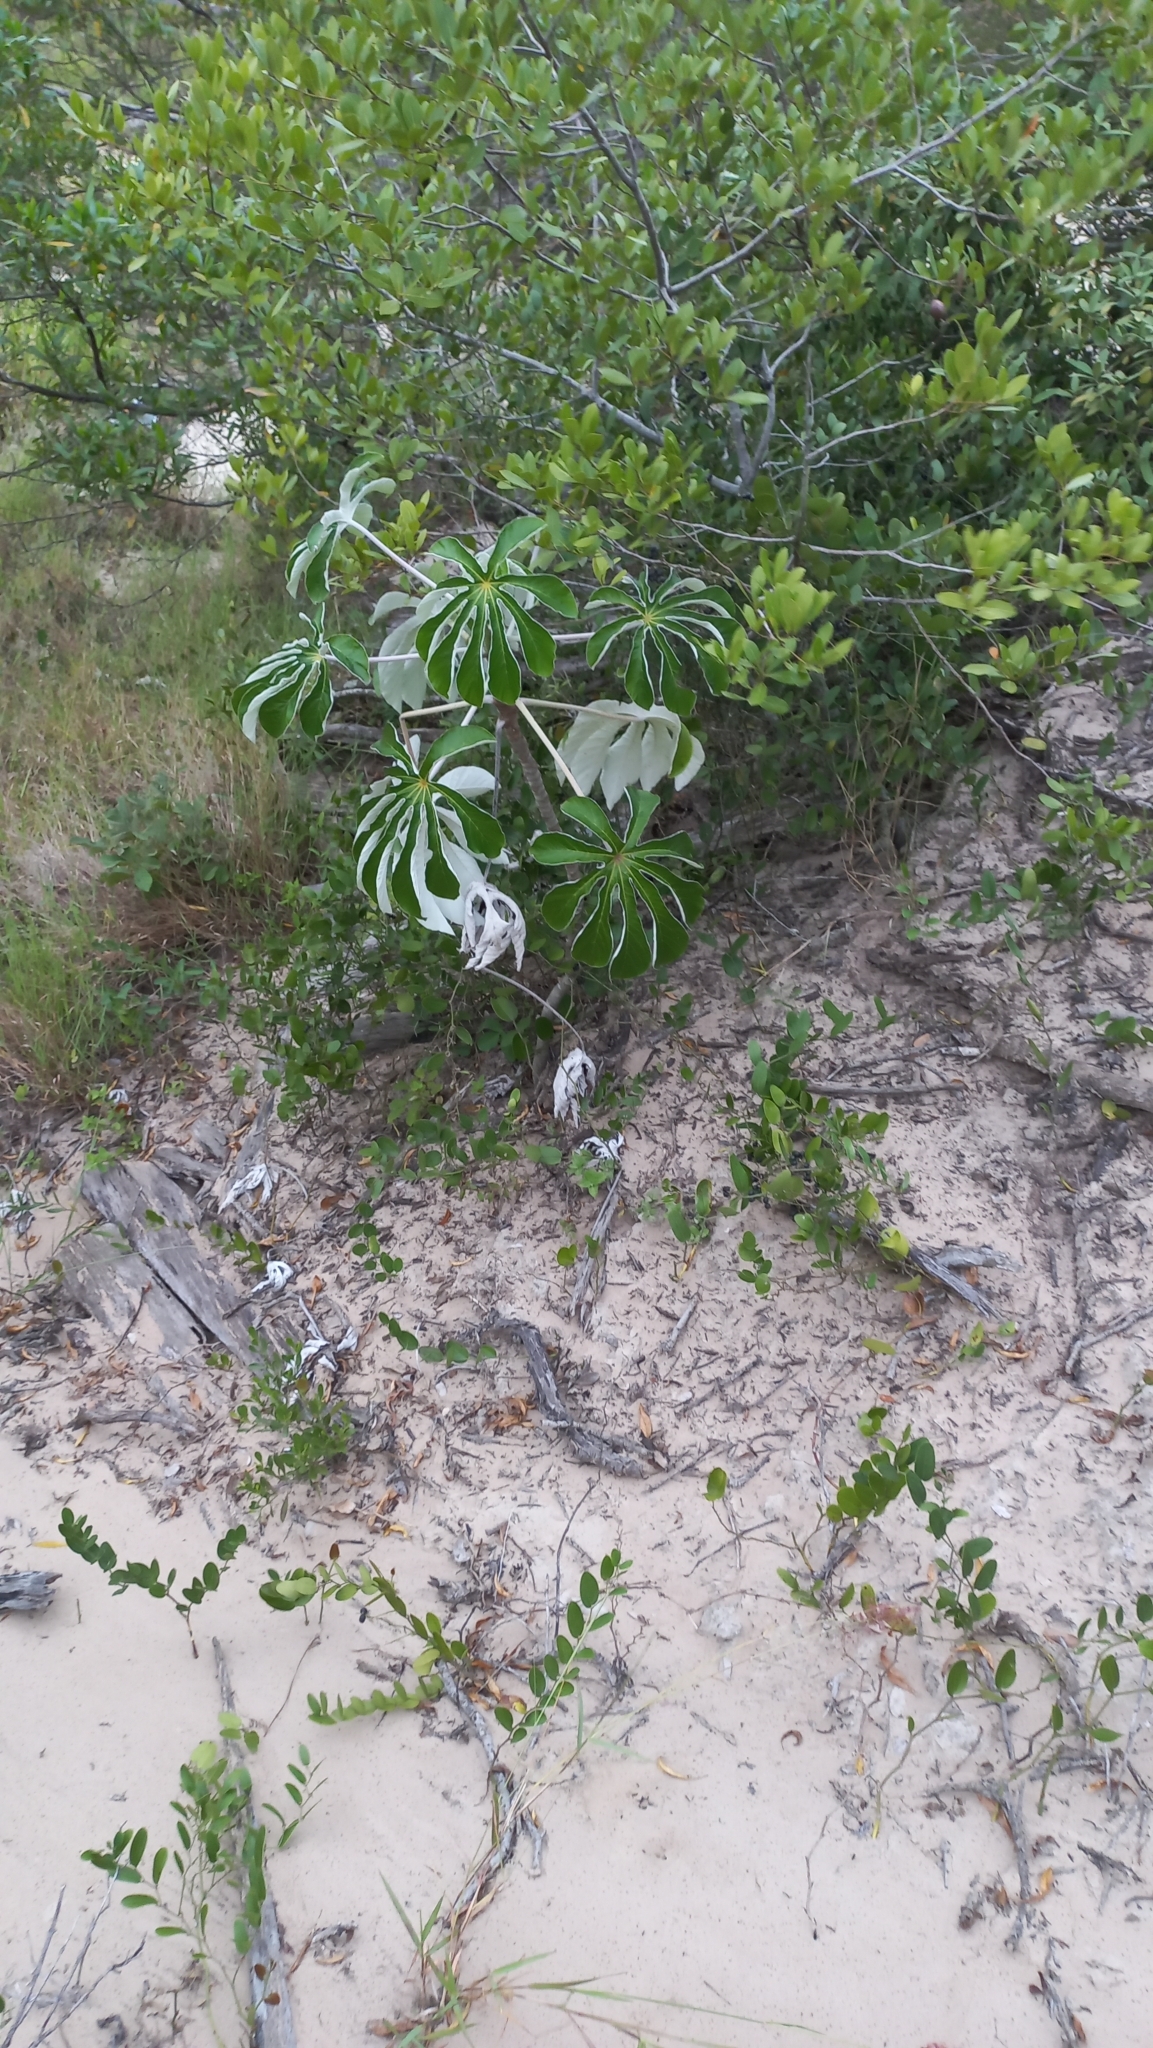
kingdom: Plantae
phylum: Tracheophyta
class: Magnoliopsida
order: Rosales
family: Urticaceae
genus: Cecropia
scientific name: Cecropia pachystachya
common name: Ambay pumpwood
